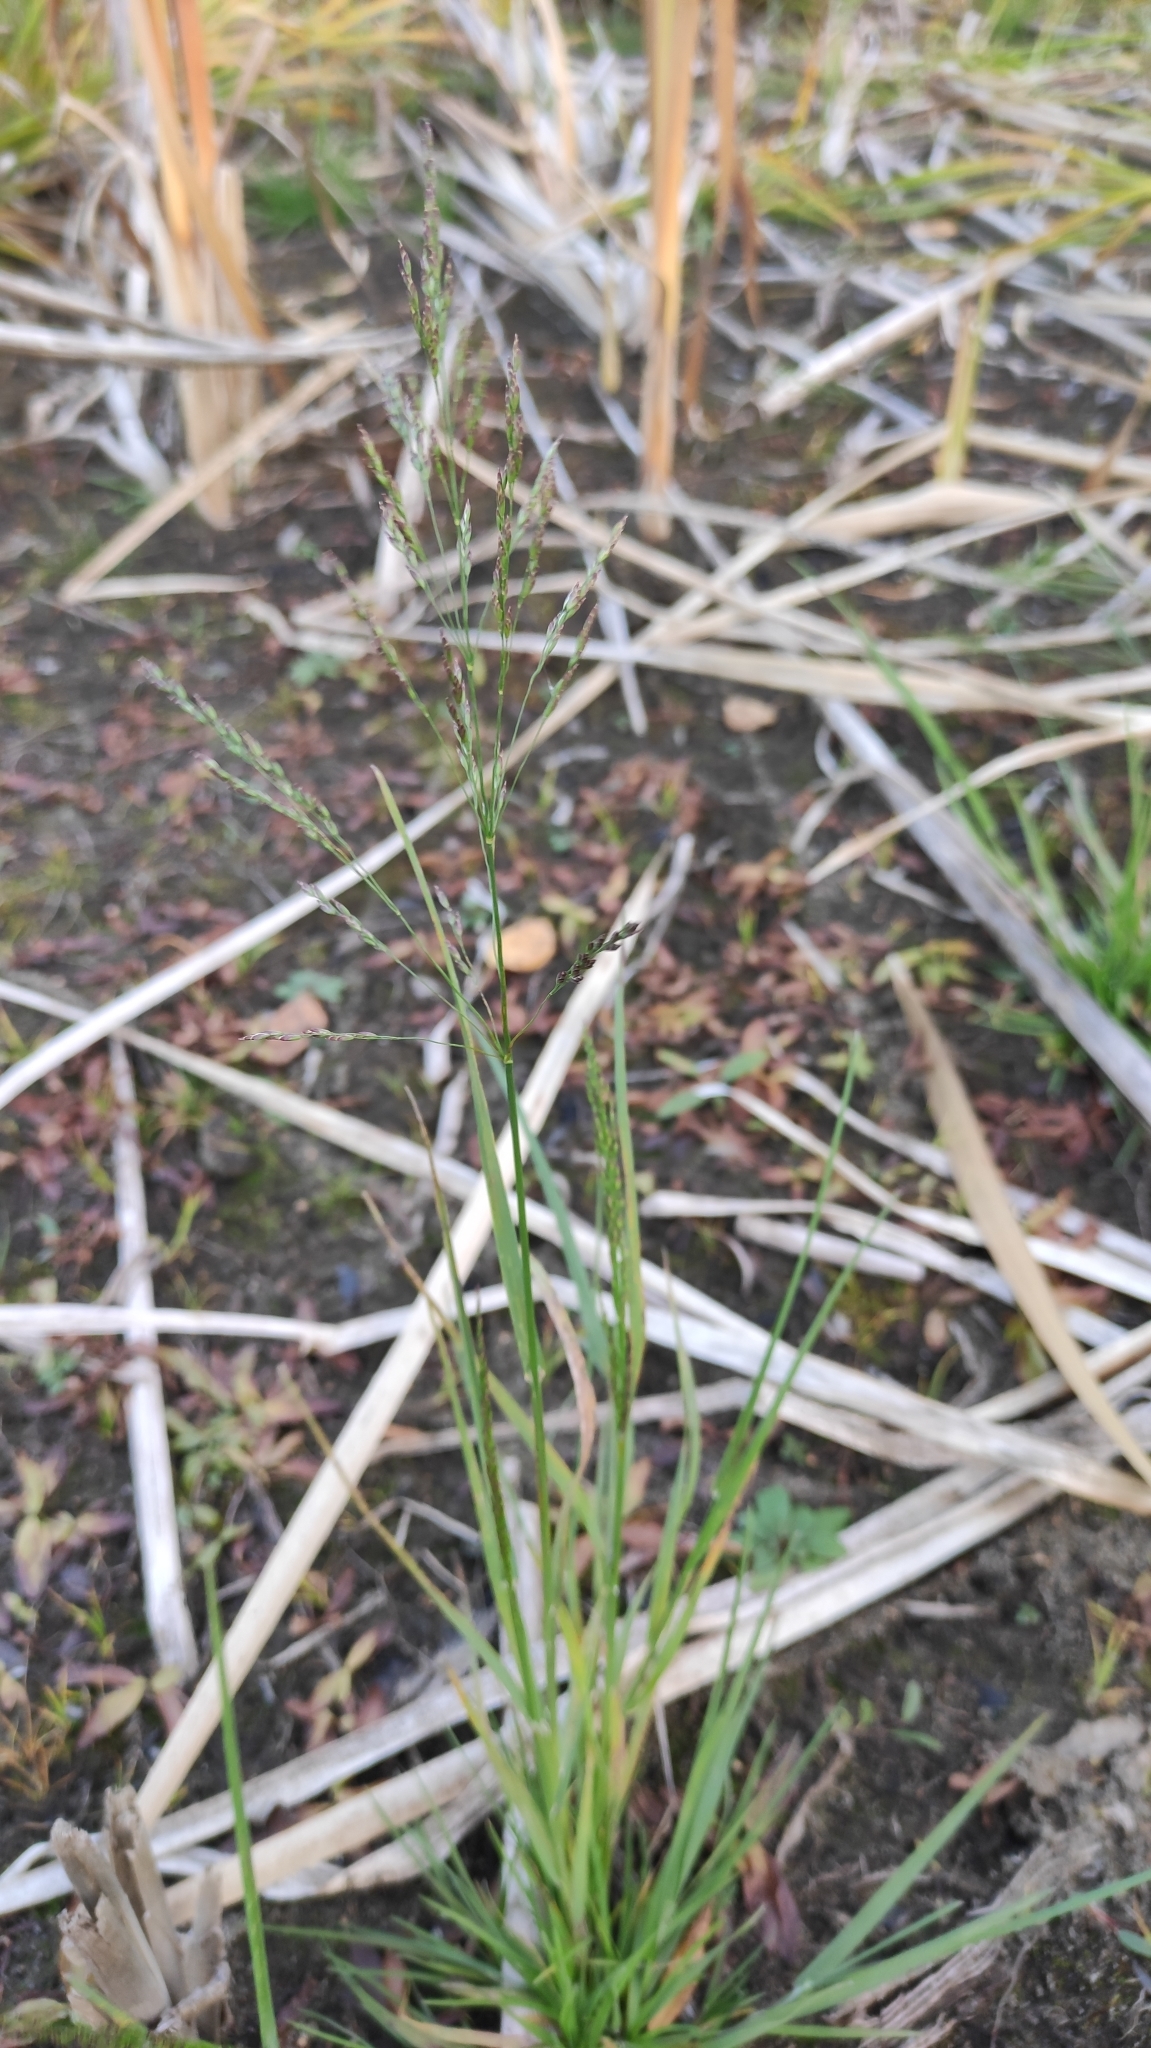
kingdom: Plantae
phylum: Tracheophyta
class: Liliopsida
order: Poales
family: Poaceae
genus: Poa
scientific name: Poa subfastigiata
